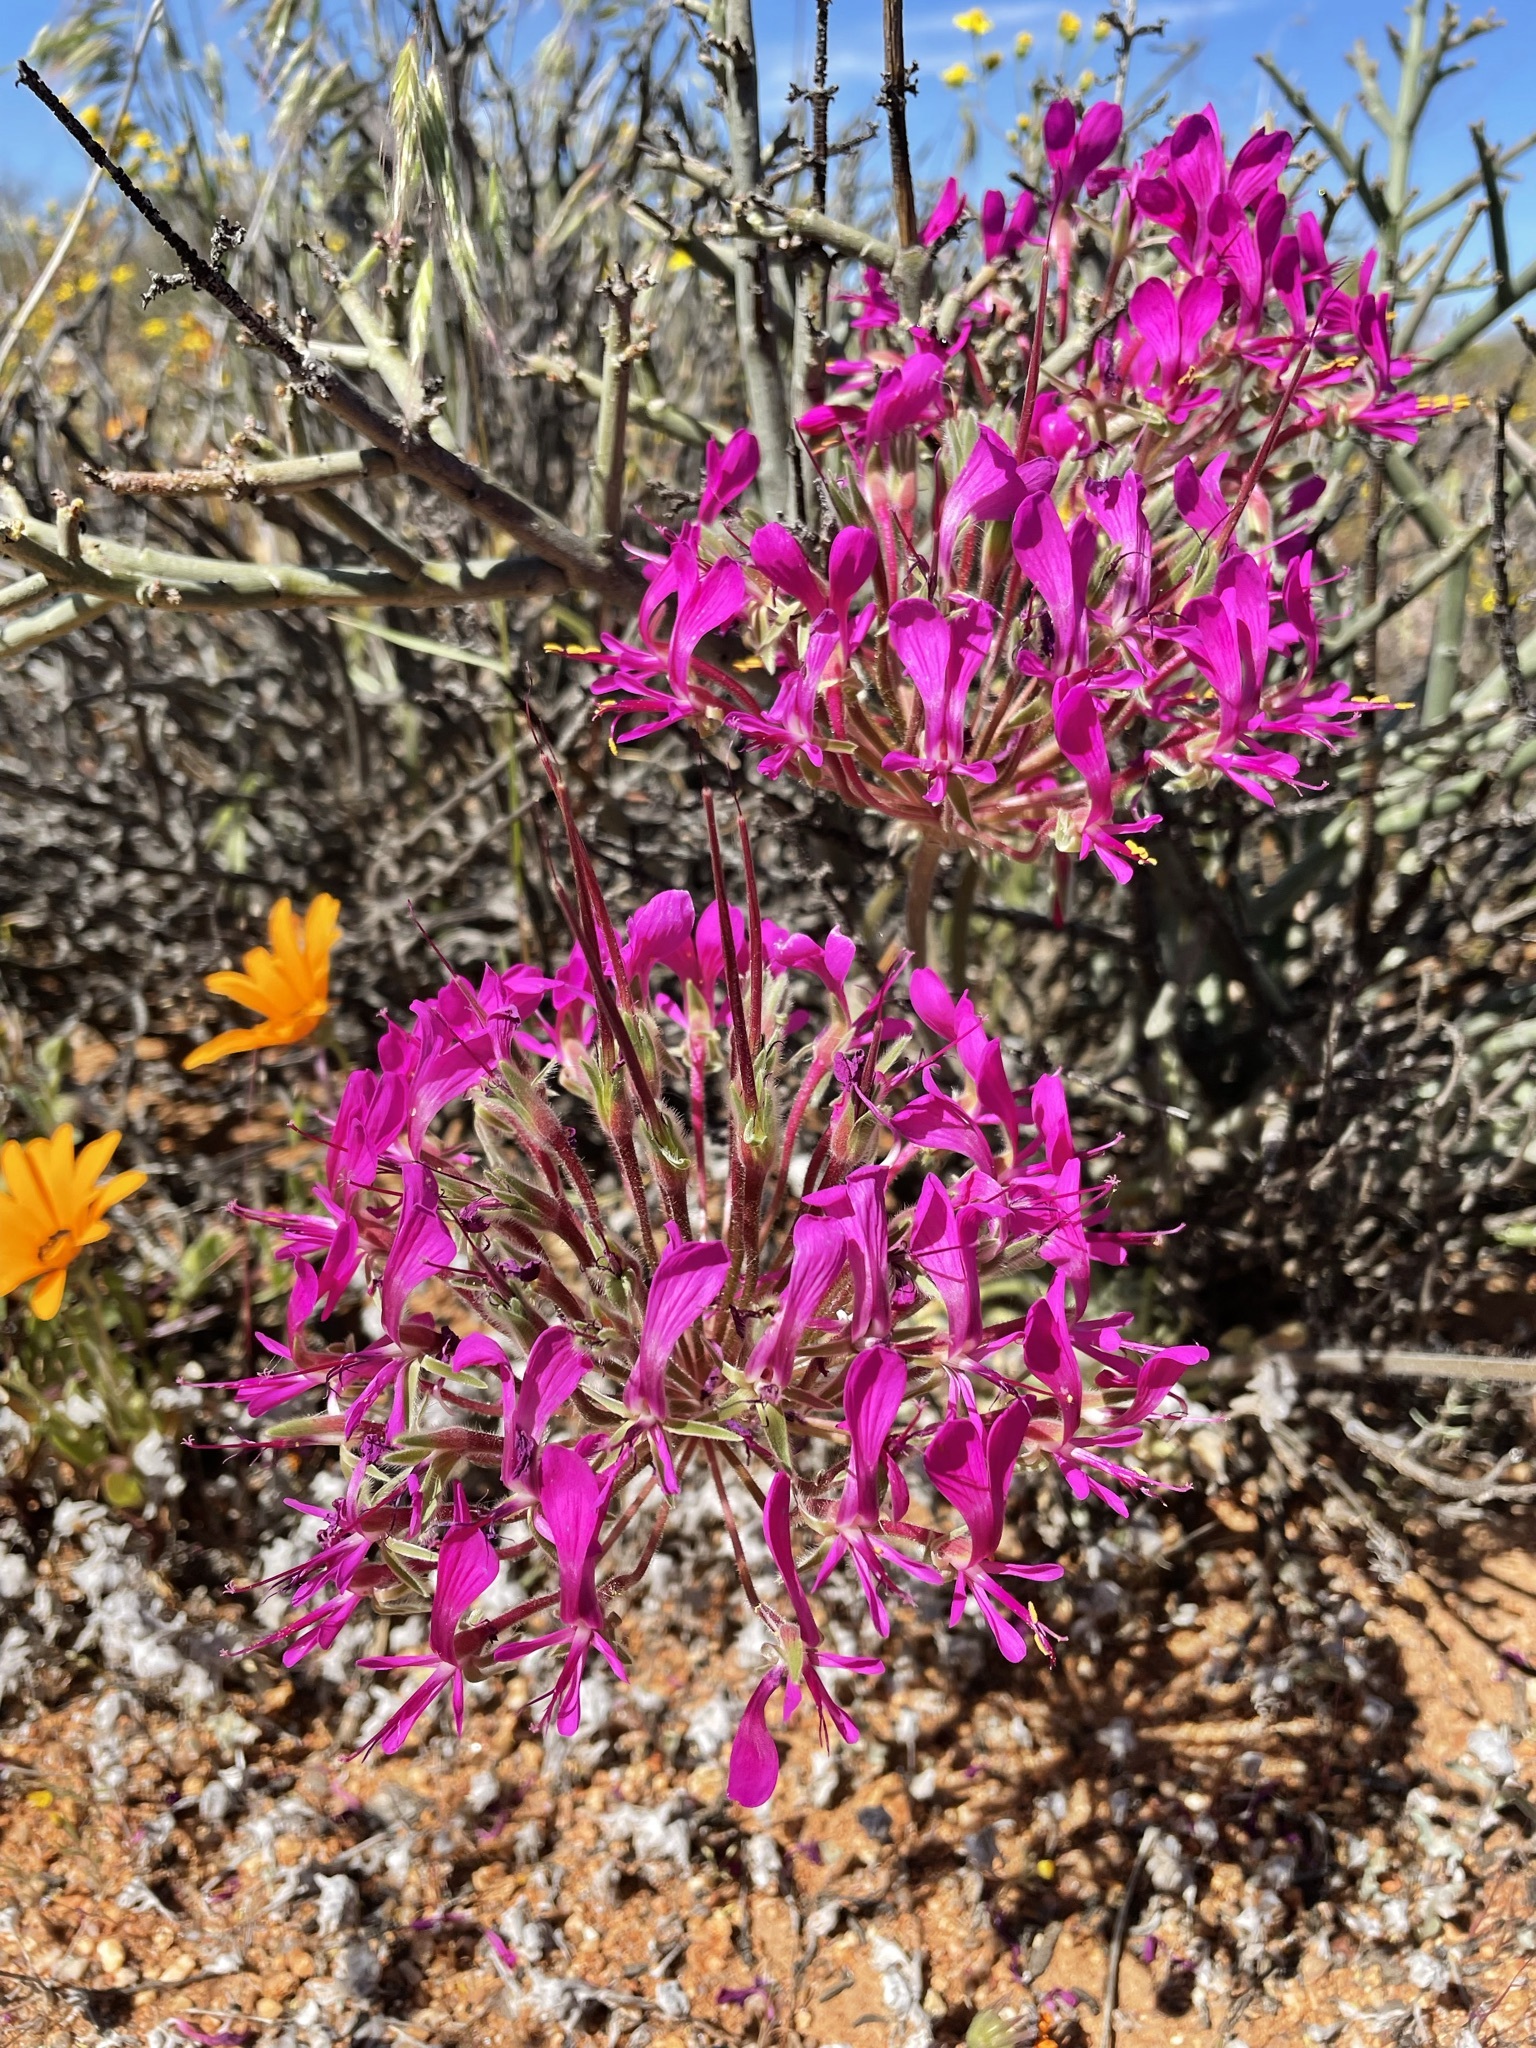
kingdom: Plantae
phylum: Tracheophyta
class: Magnoliopsida
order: Geraniales
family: Geraniaceae
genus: Pelargonium
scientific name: Pelargonium incrassatum
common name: Namaqualand beauty
